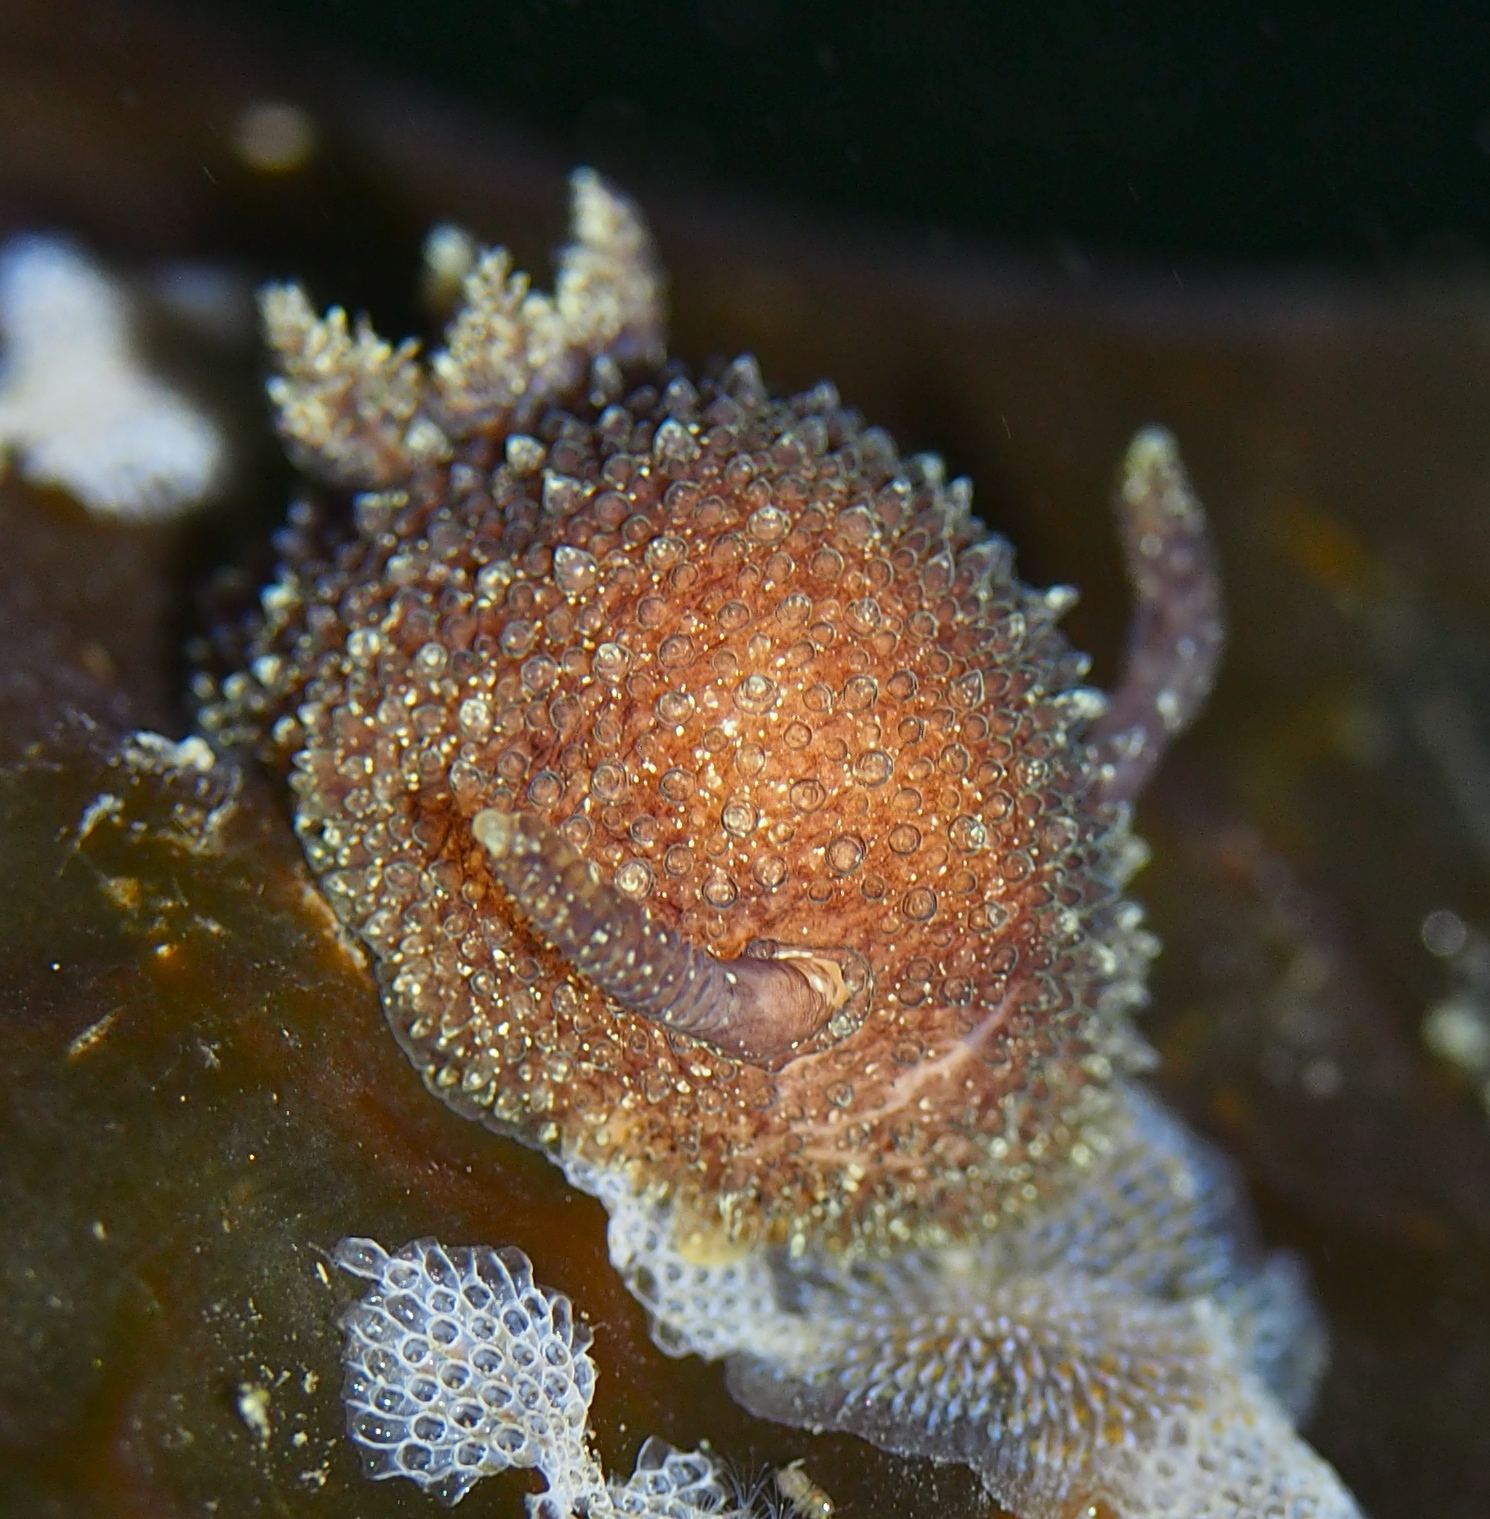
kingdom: Animalia
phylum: Mollusca
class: Gastropoda
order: Nudibranchia
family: Onchidorididae
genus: Acanthodoris
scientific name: Acanthodoris pilosa
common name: Hairy spiny doris
